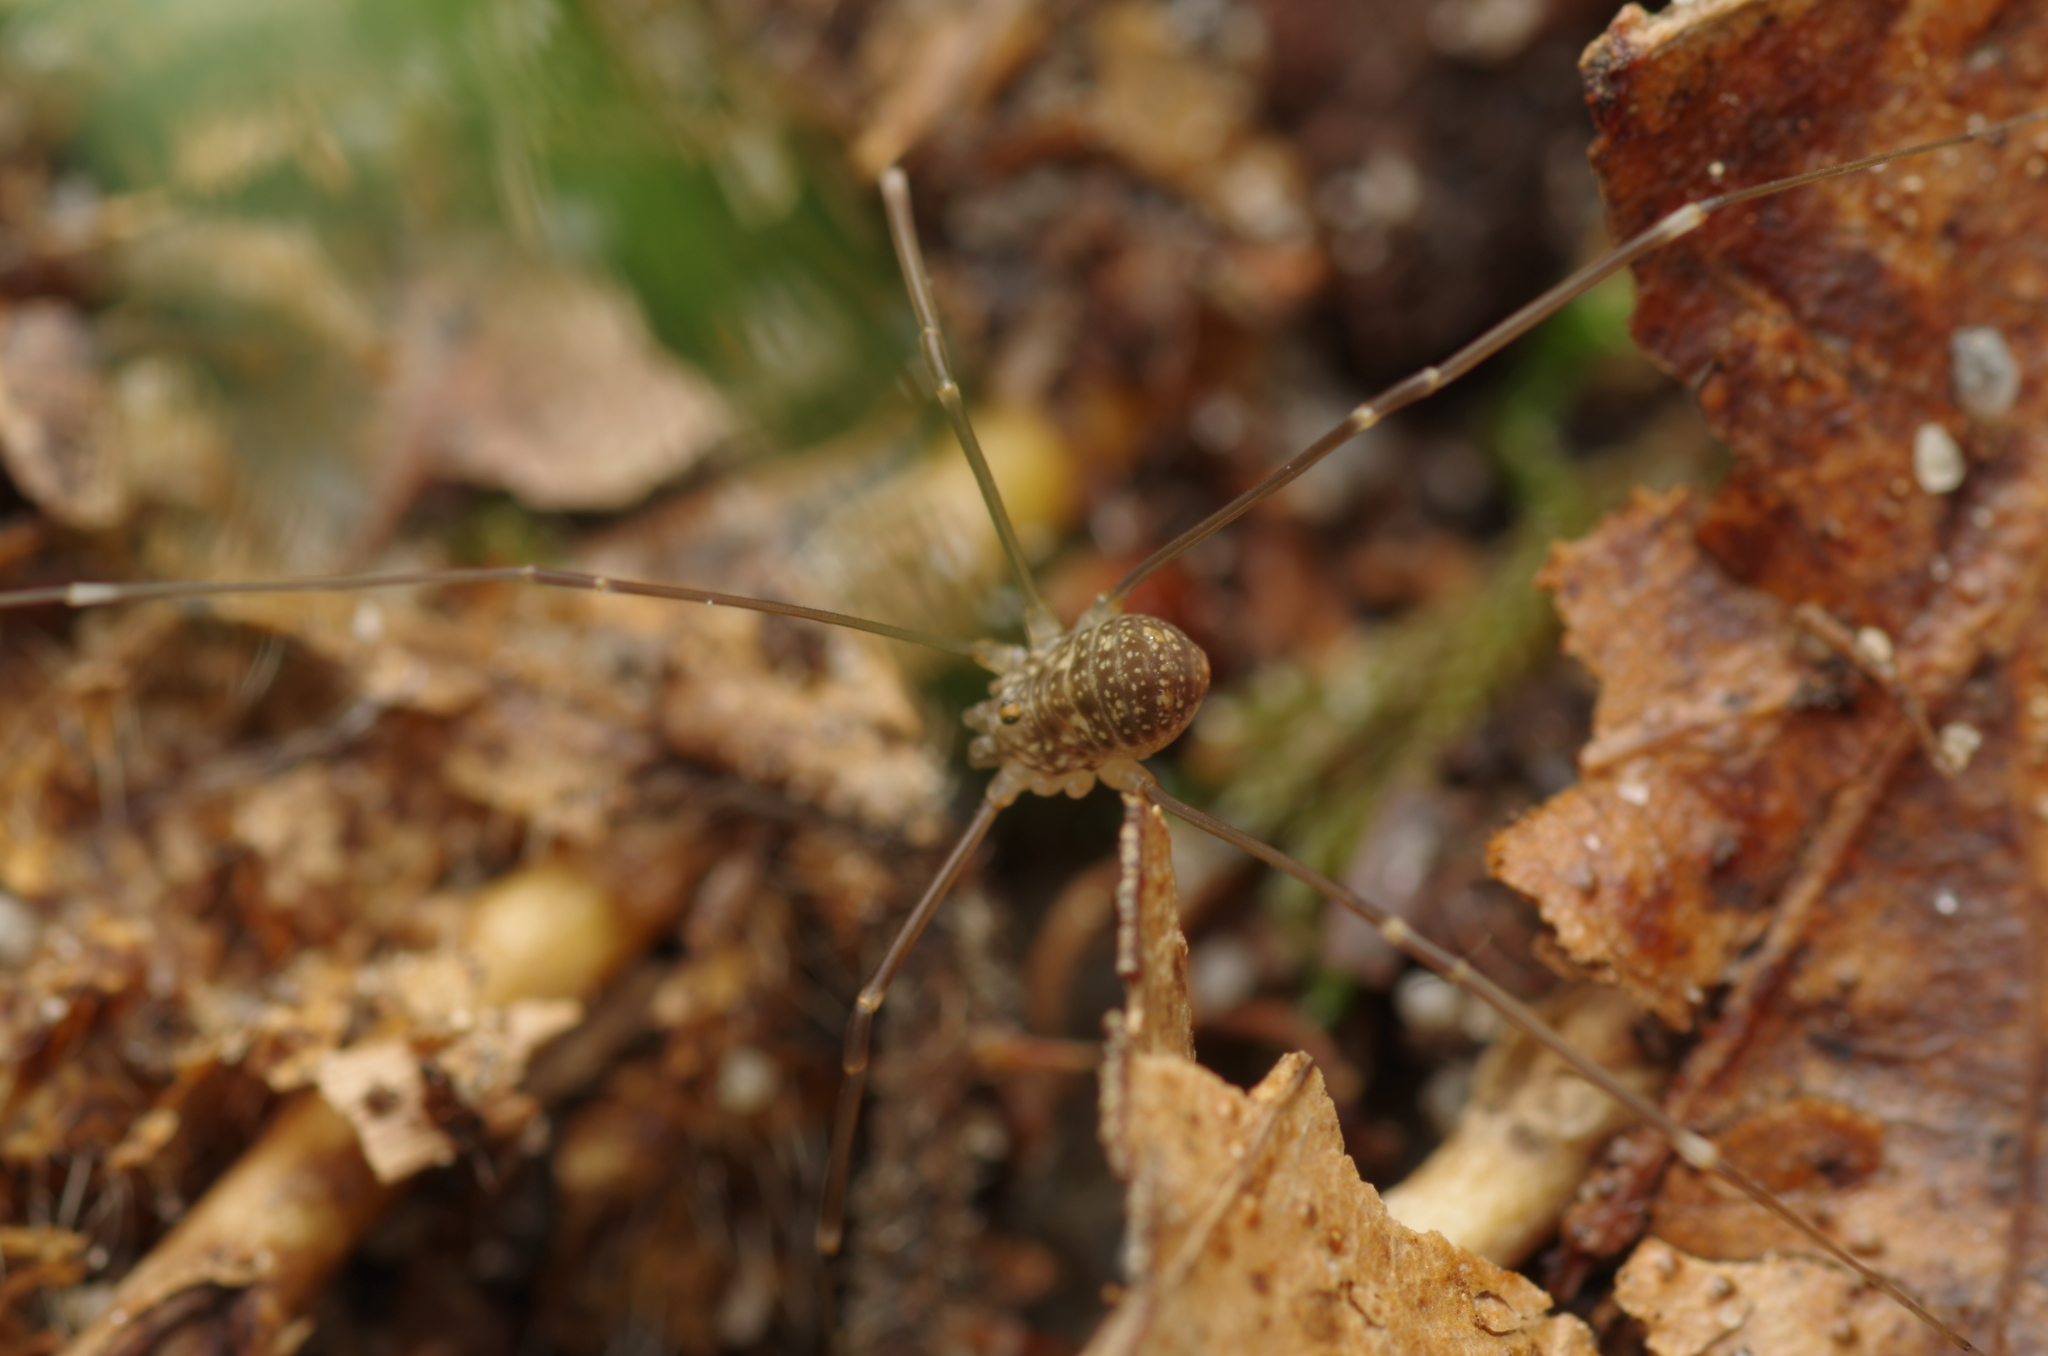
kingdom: Animalia
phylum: Arthropoda
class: Arachnida
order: Opiliones
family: Sclerosomatidae
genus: Nelima
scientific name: Nelima gothica
